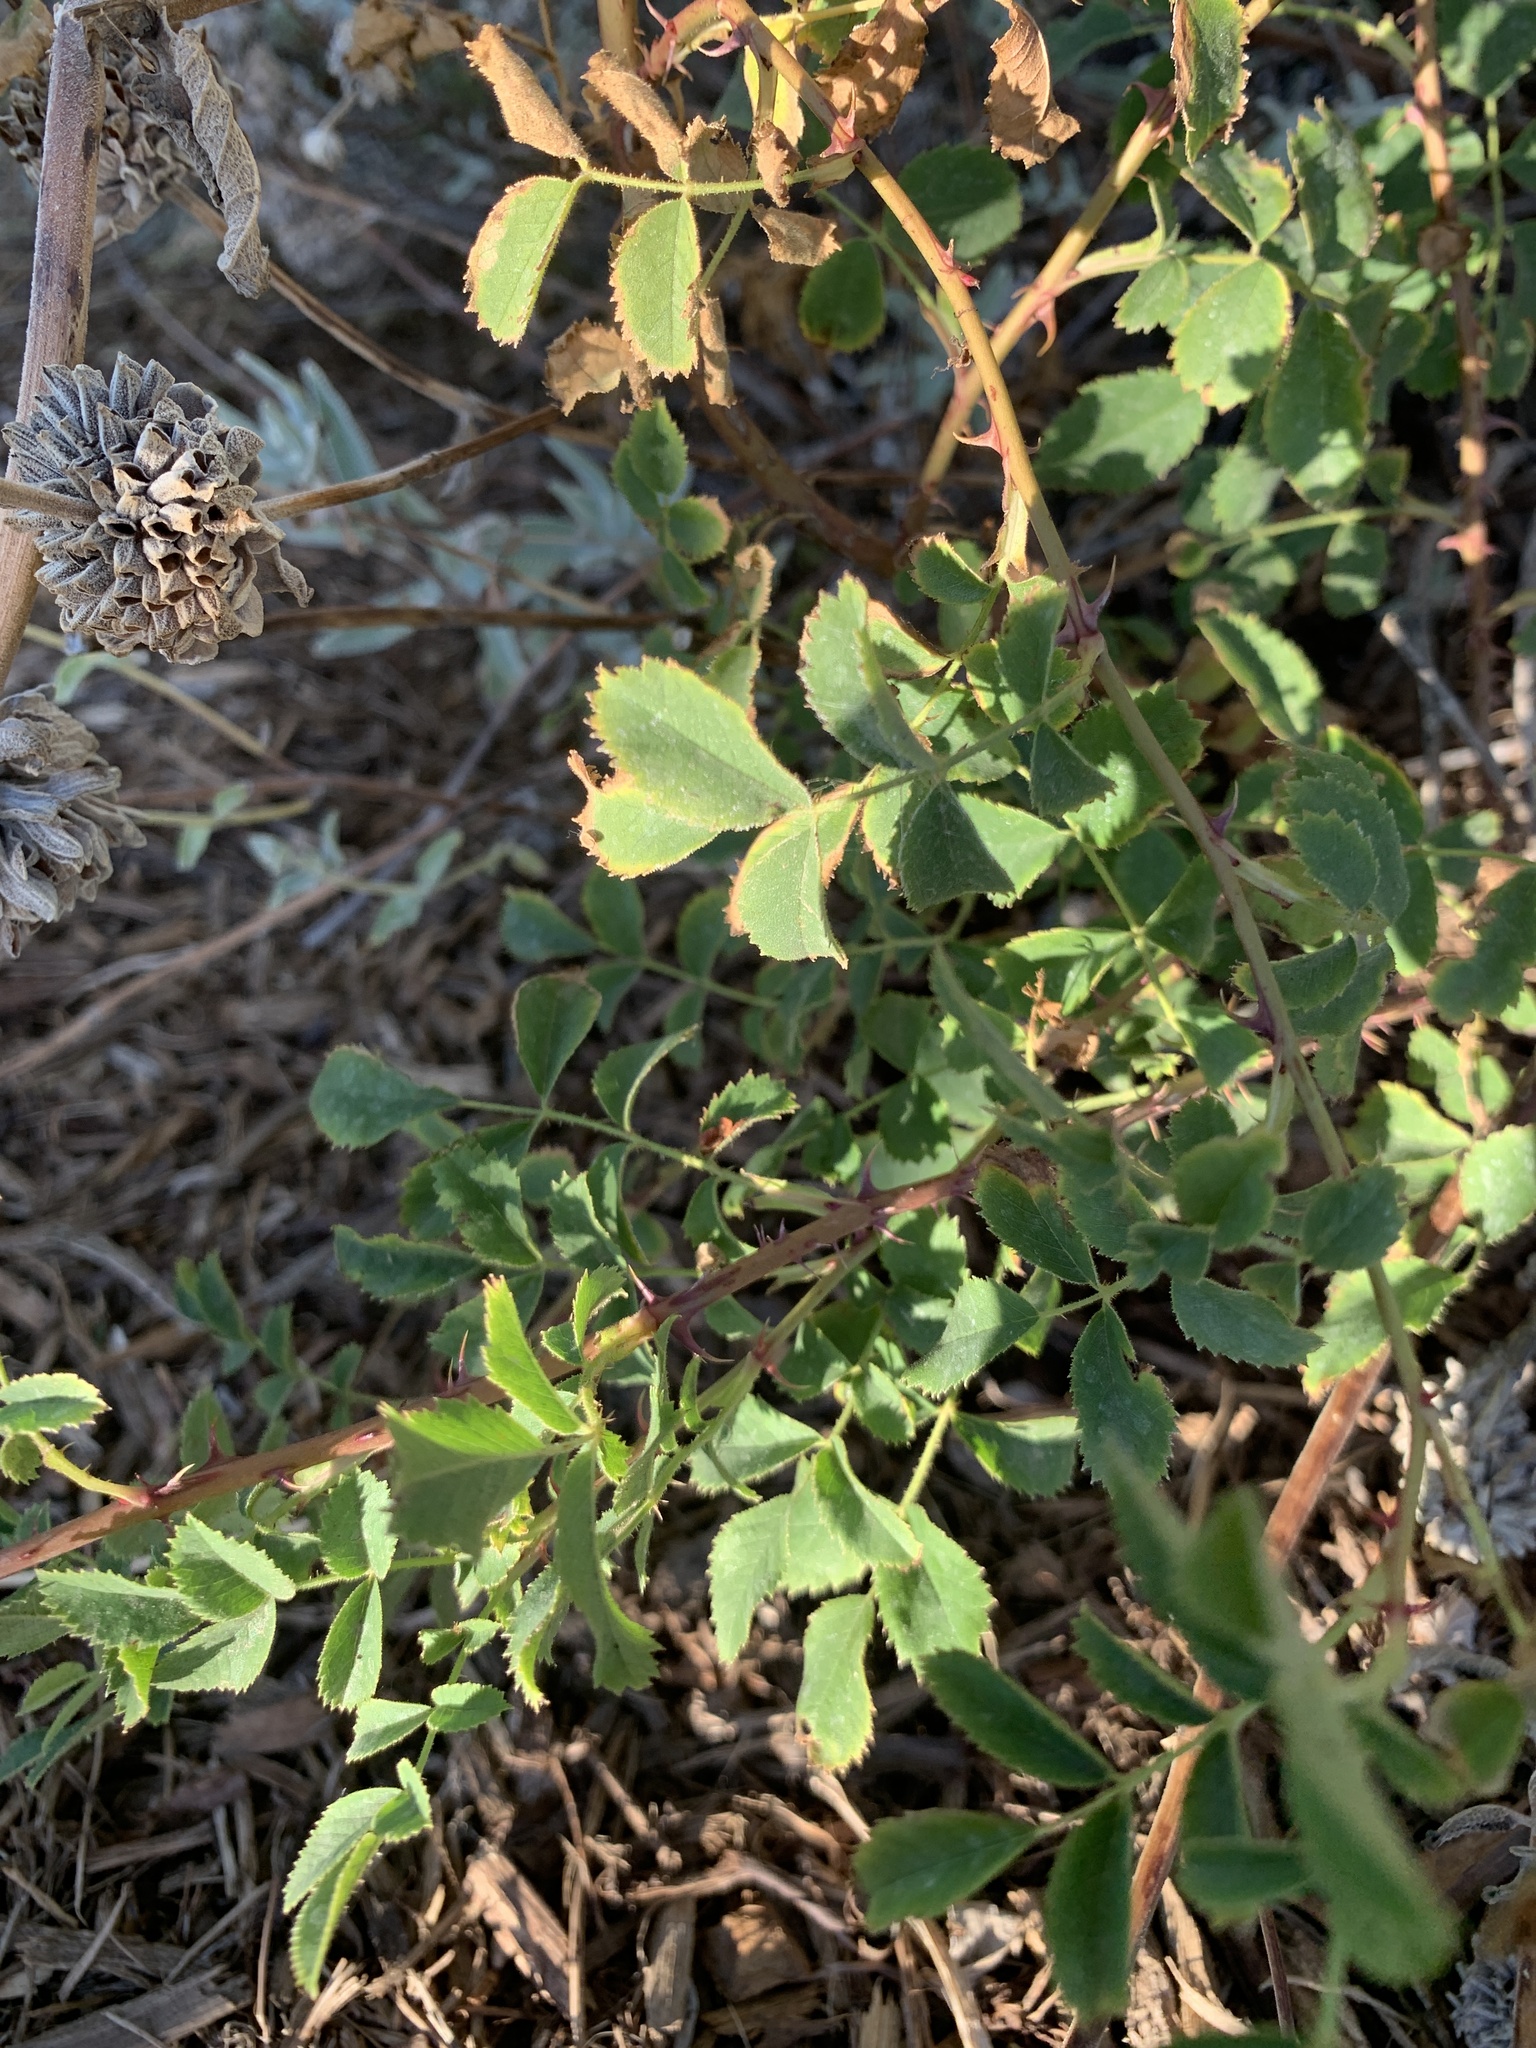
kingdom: Plantae
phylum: Tracheophyta
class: Magnoliopsida
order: Rosales
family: Rosaceae
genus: Rosa
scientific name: Rosa californica
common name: California rose
